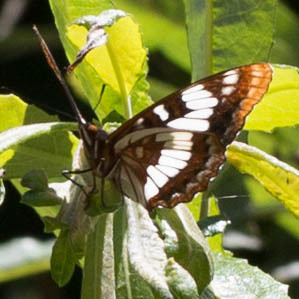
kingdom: Animalia
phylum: Arthropoda
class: Insecta
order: Lepidoptera
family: Nymphalidae
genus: Limenitis
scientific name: Limenitis lorquini
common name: Lorquin's admiral
